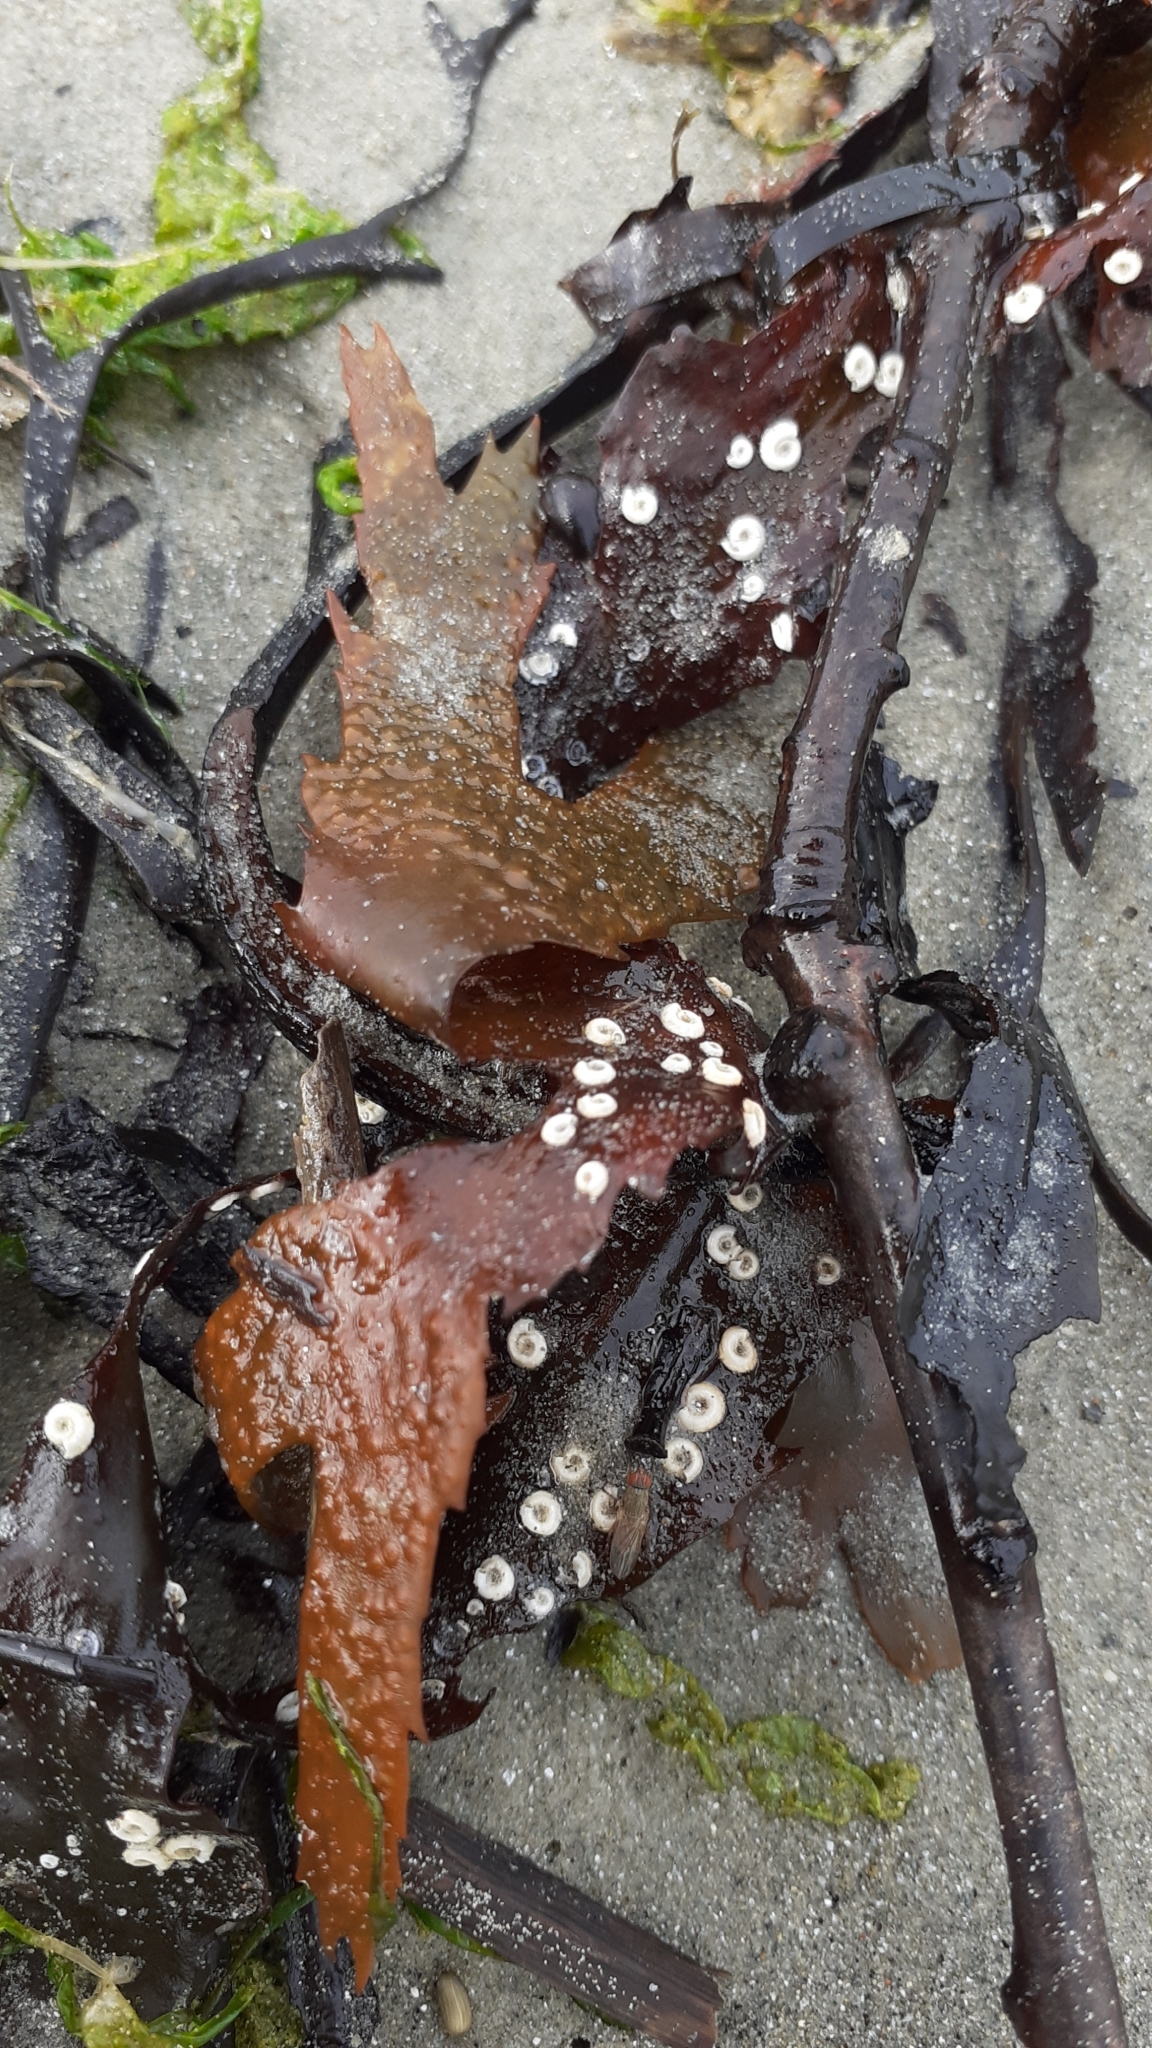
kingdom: Animalia
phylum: Annelida
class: Polychaeta
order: Sabellida
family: Serpulidae
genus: Spirorbis
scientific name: Spirorbis spirorbis
